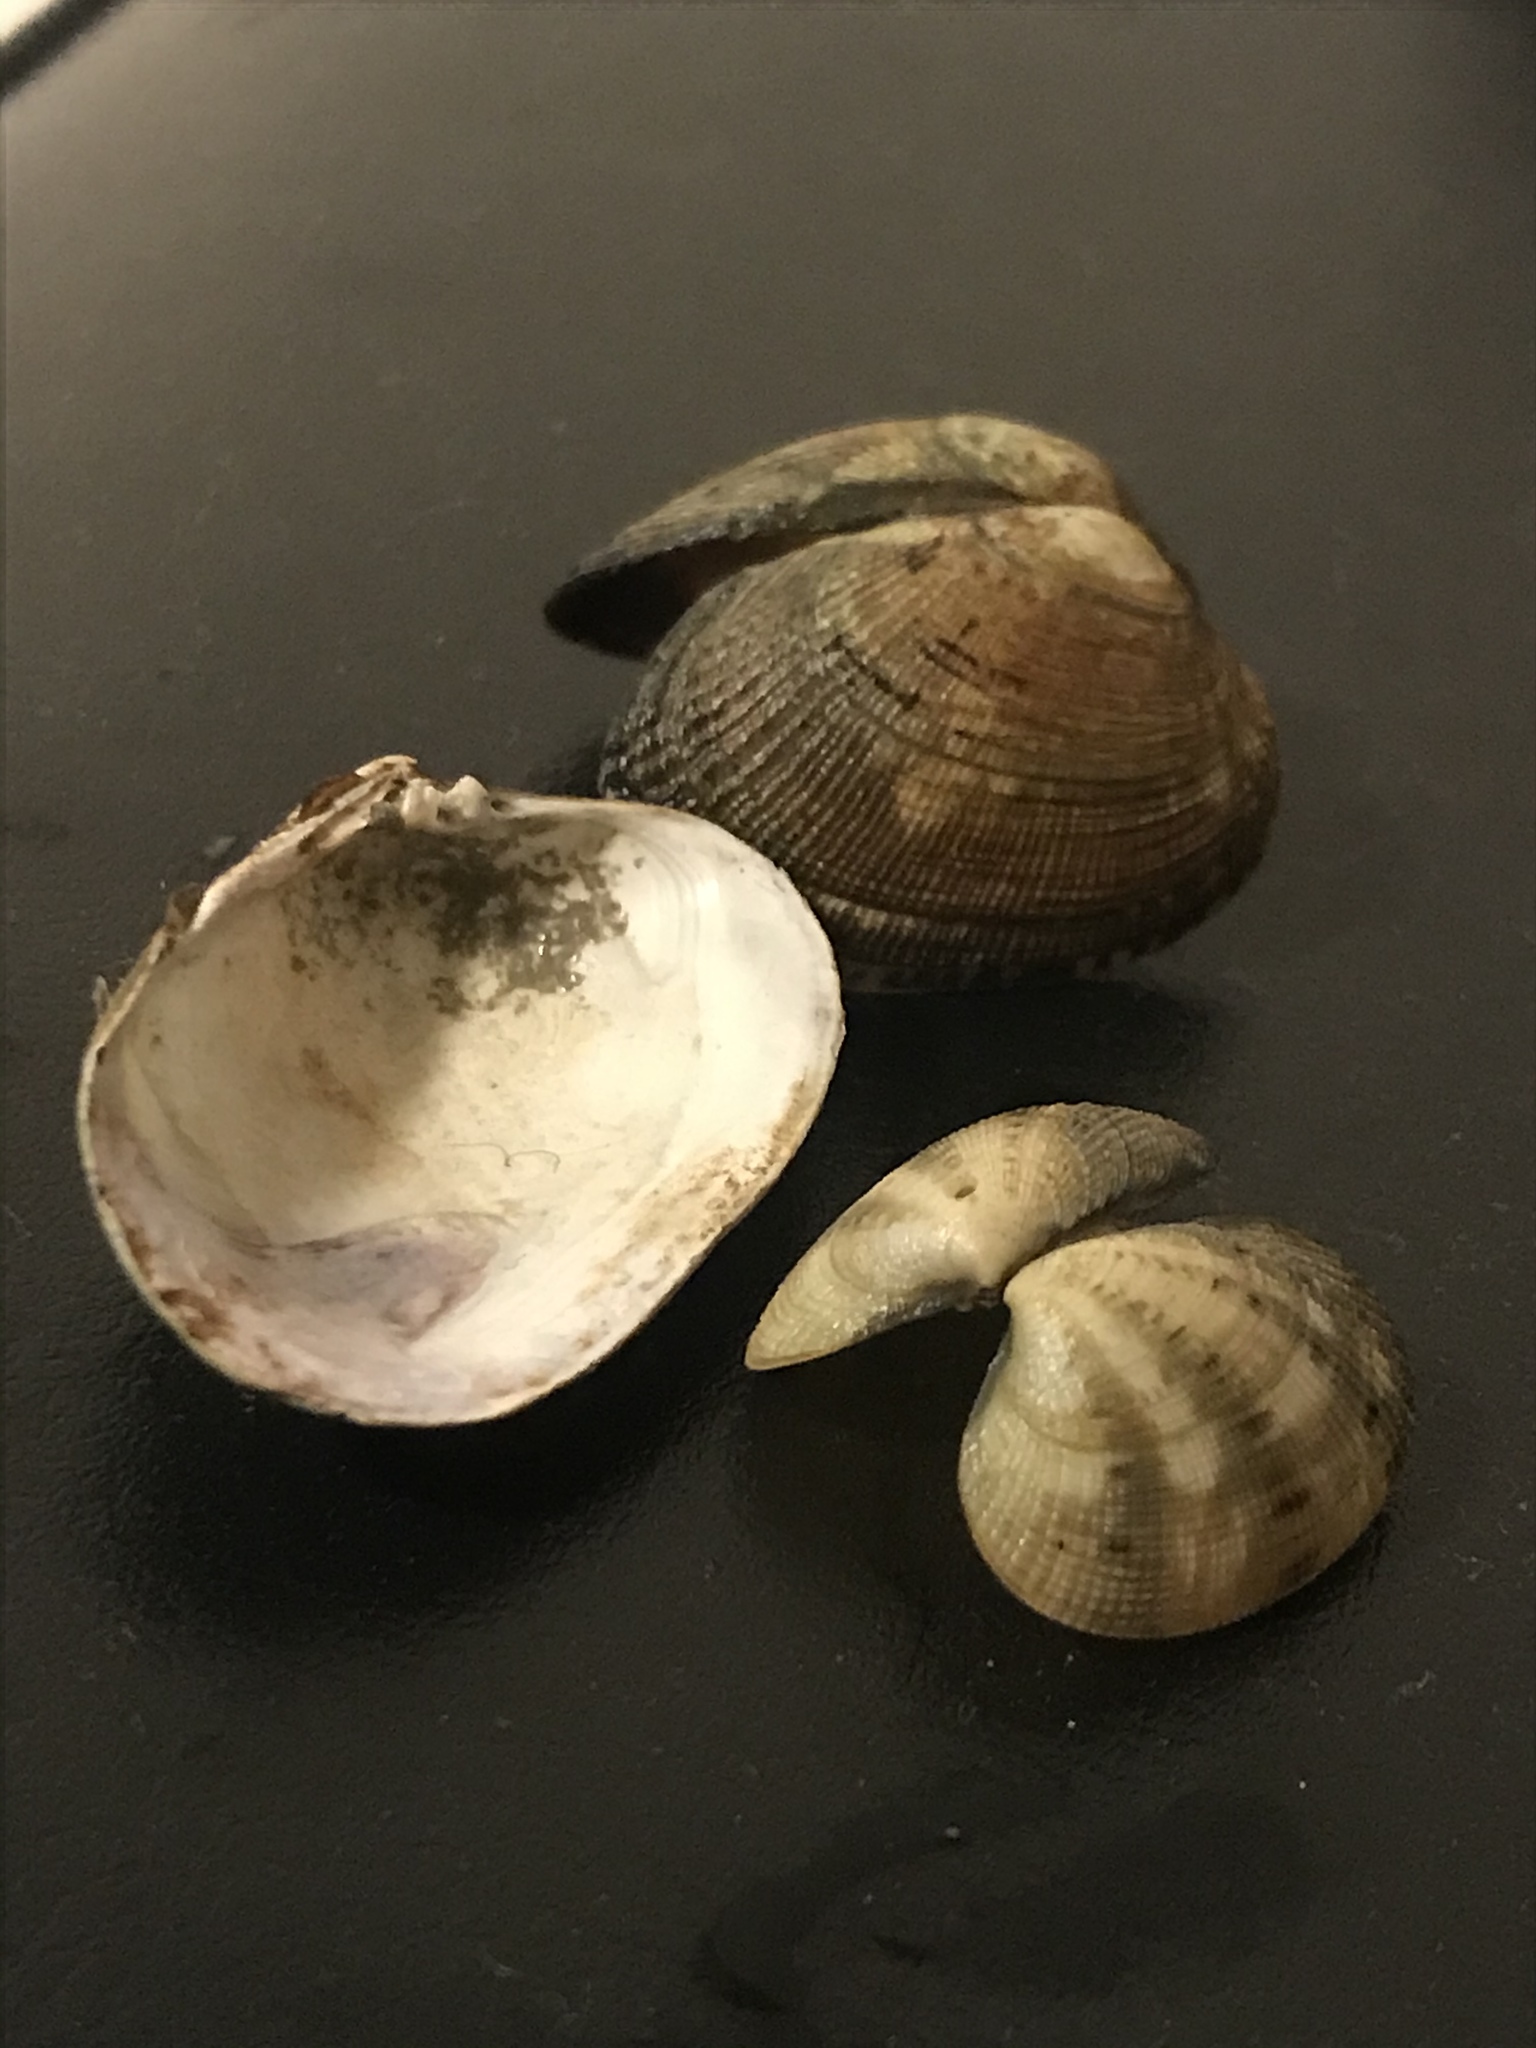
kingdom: Animalia
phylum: Mollusca
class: Bivalvia
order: Venerida
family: Veneridae
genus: Ruditapes
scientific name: Ruditapes philippinarum
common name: Manila clam
